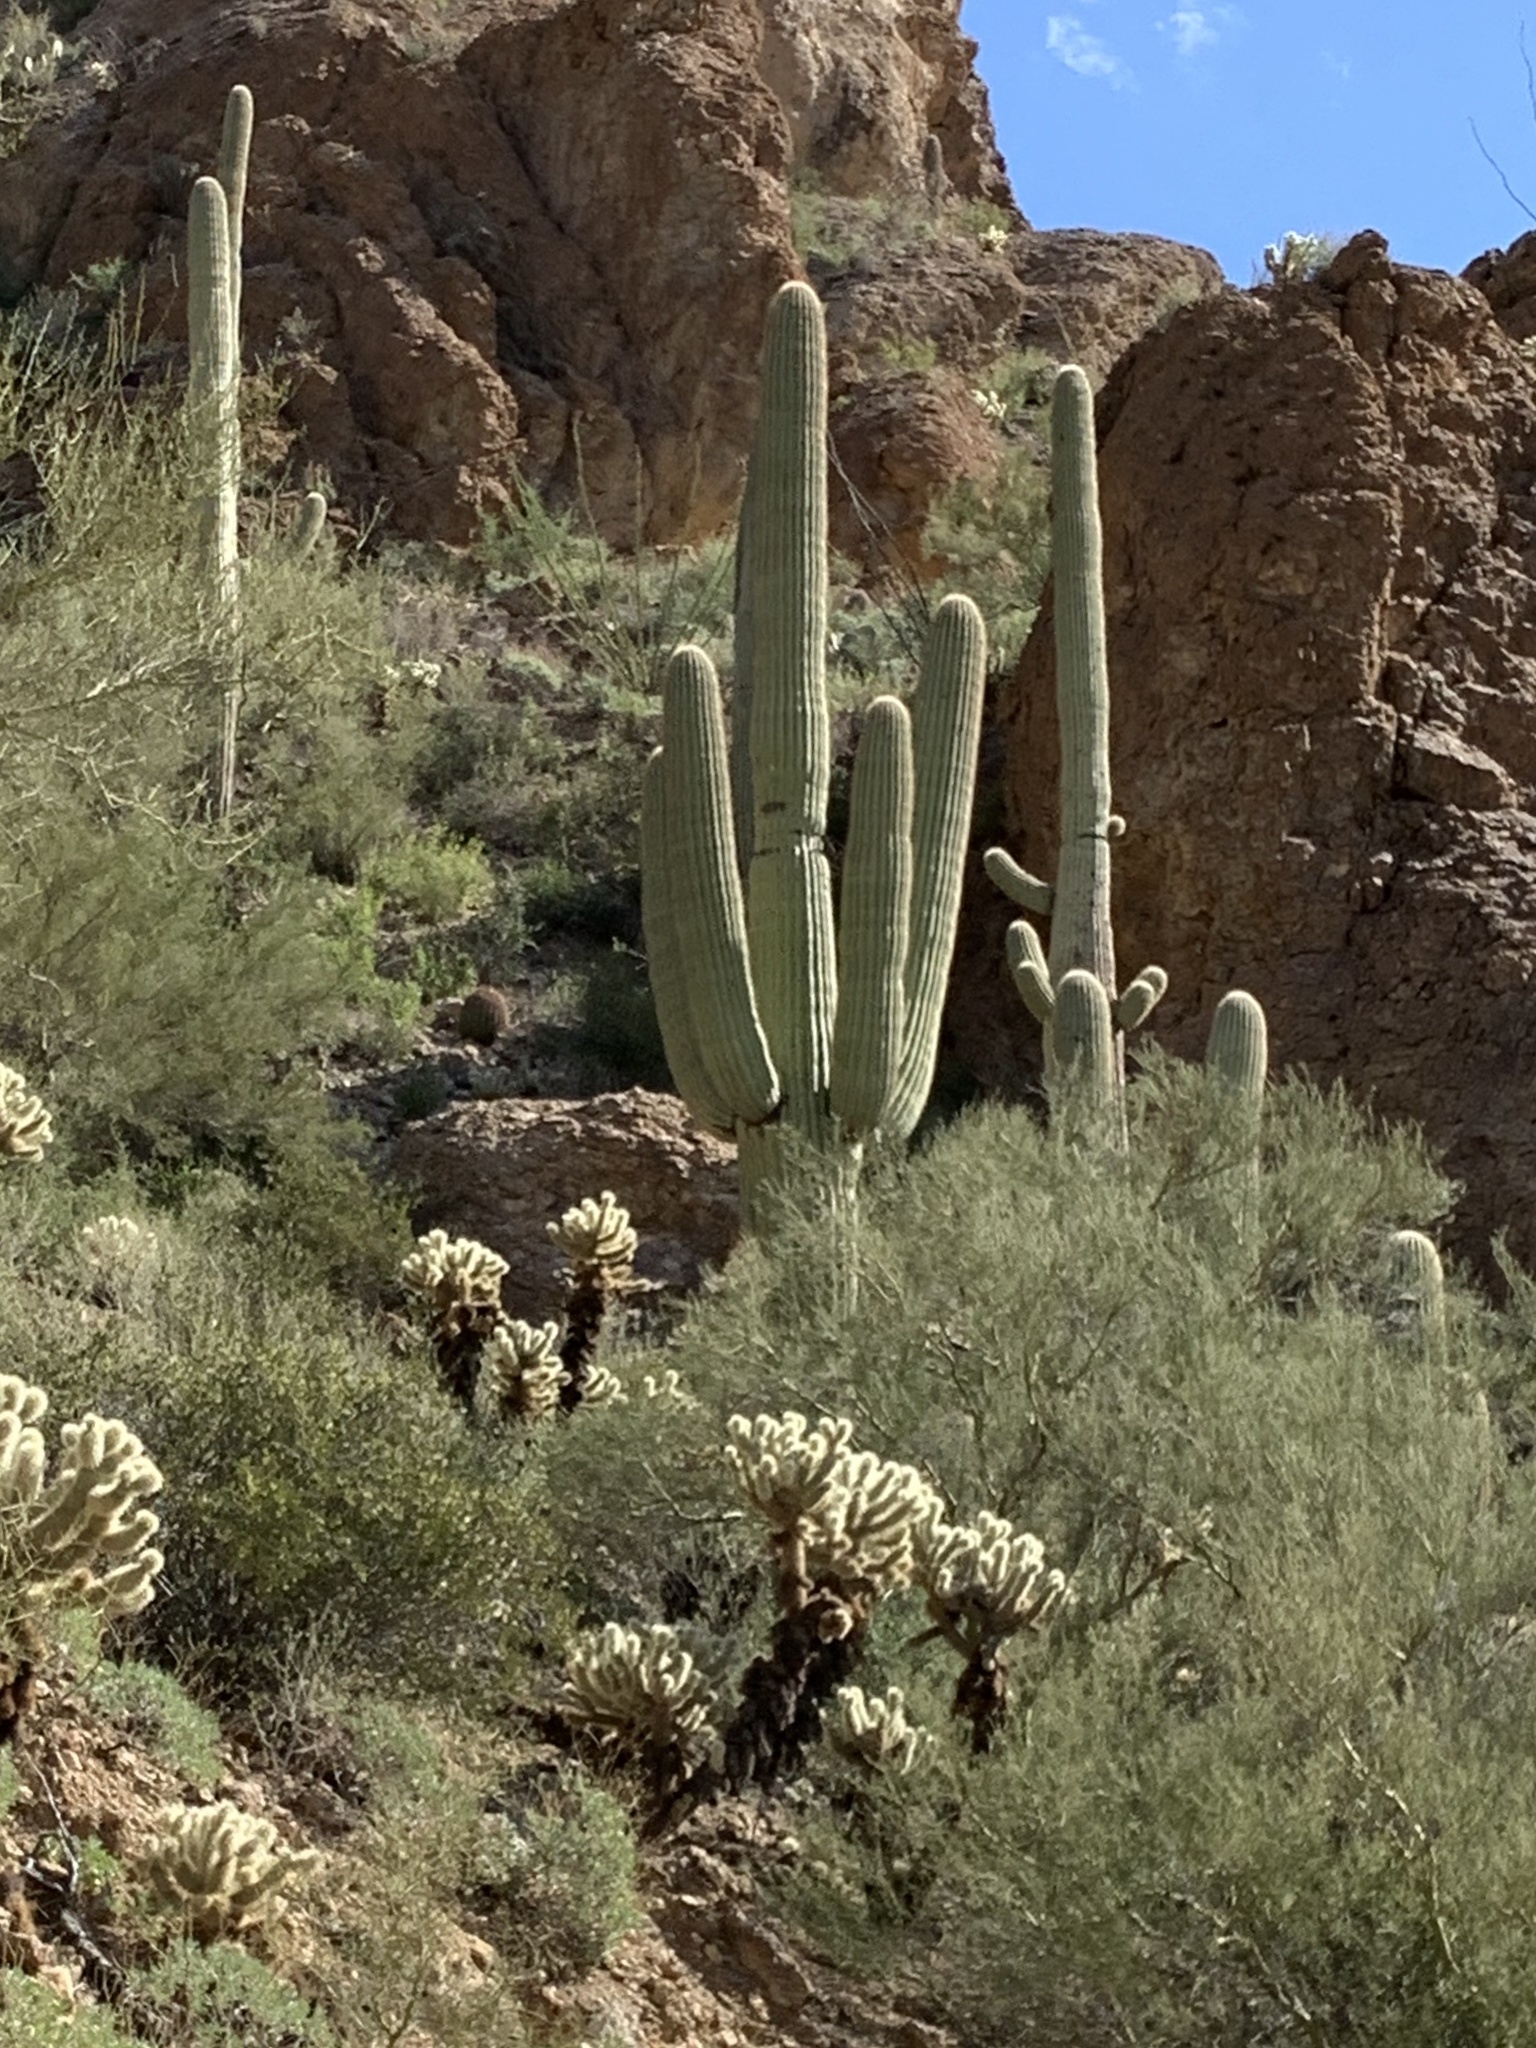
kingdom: Plantae
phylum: Tracheophyta
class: Magnoliopsida
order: Caryophyllales
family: Cactaceae
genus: Carnegiea
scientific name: Carnegiea gigantea
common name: Saguaro
